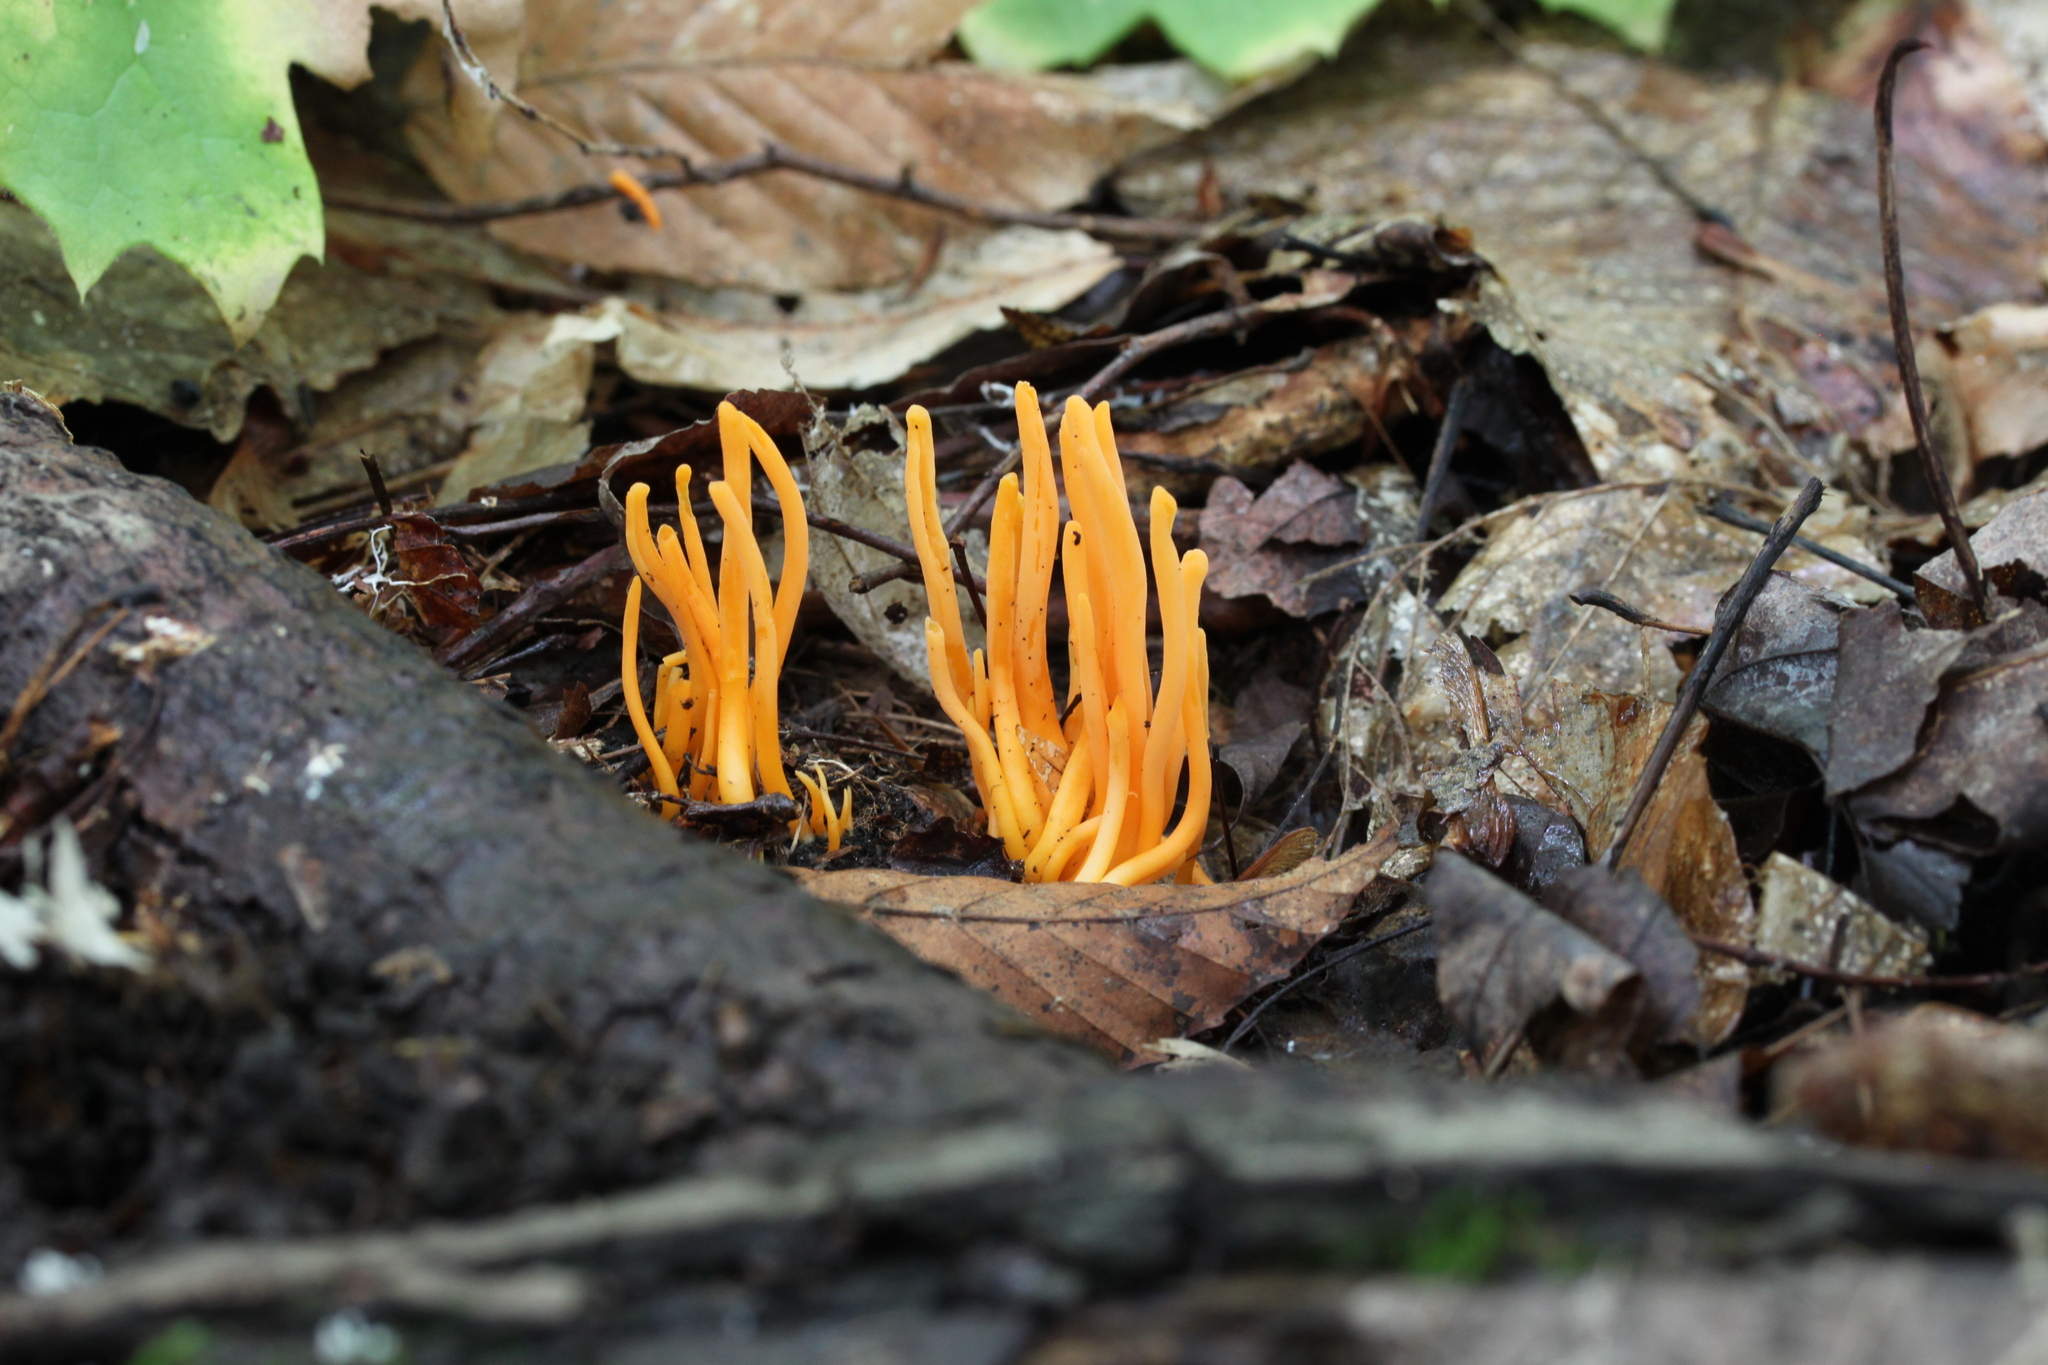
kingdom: Fungi
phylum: Basidiomycota
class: Agaricomycetes
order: Agaricales
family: Clavariaceae
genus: Clavulinopsis
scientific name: Clavulinopsis aurantiocinnabarina
